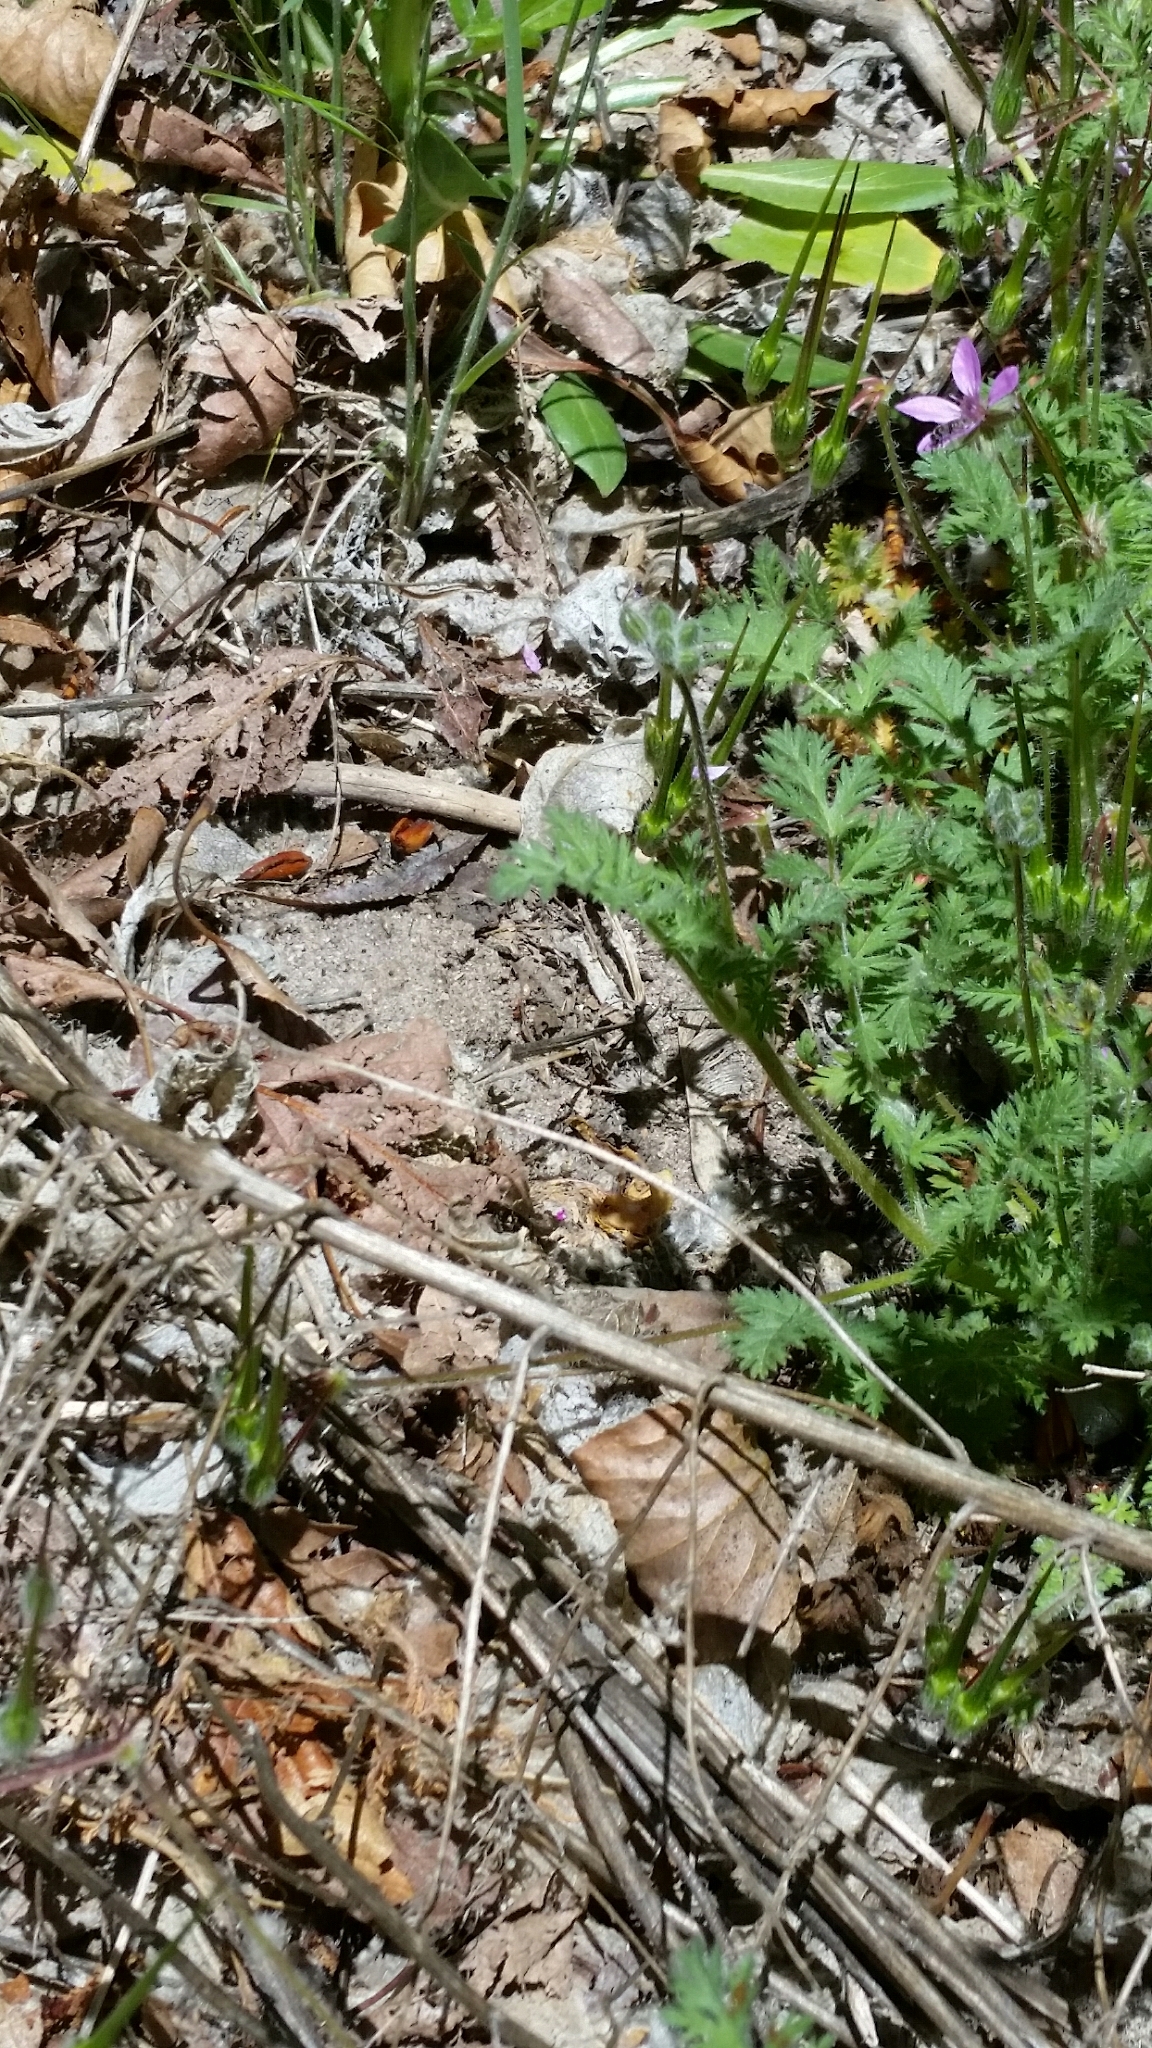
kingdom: Plantae
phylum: Tracheophyta
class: Magnoliopsida
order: Geraniales
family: Geraniaceae
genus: Erodium
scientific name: Erodium cicutarium
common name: Common stork's-bill
